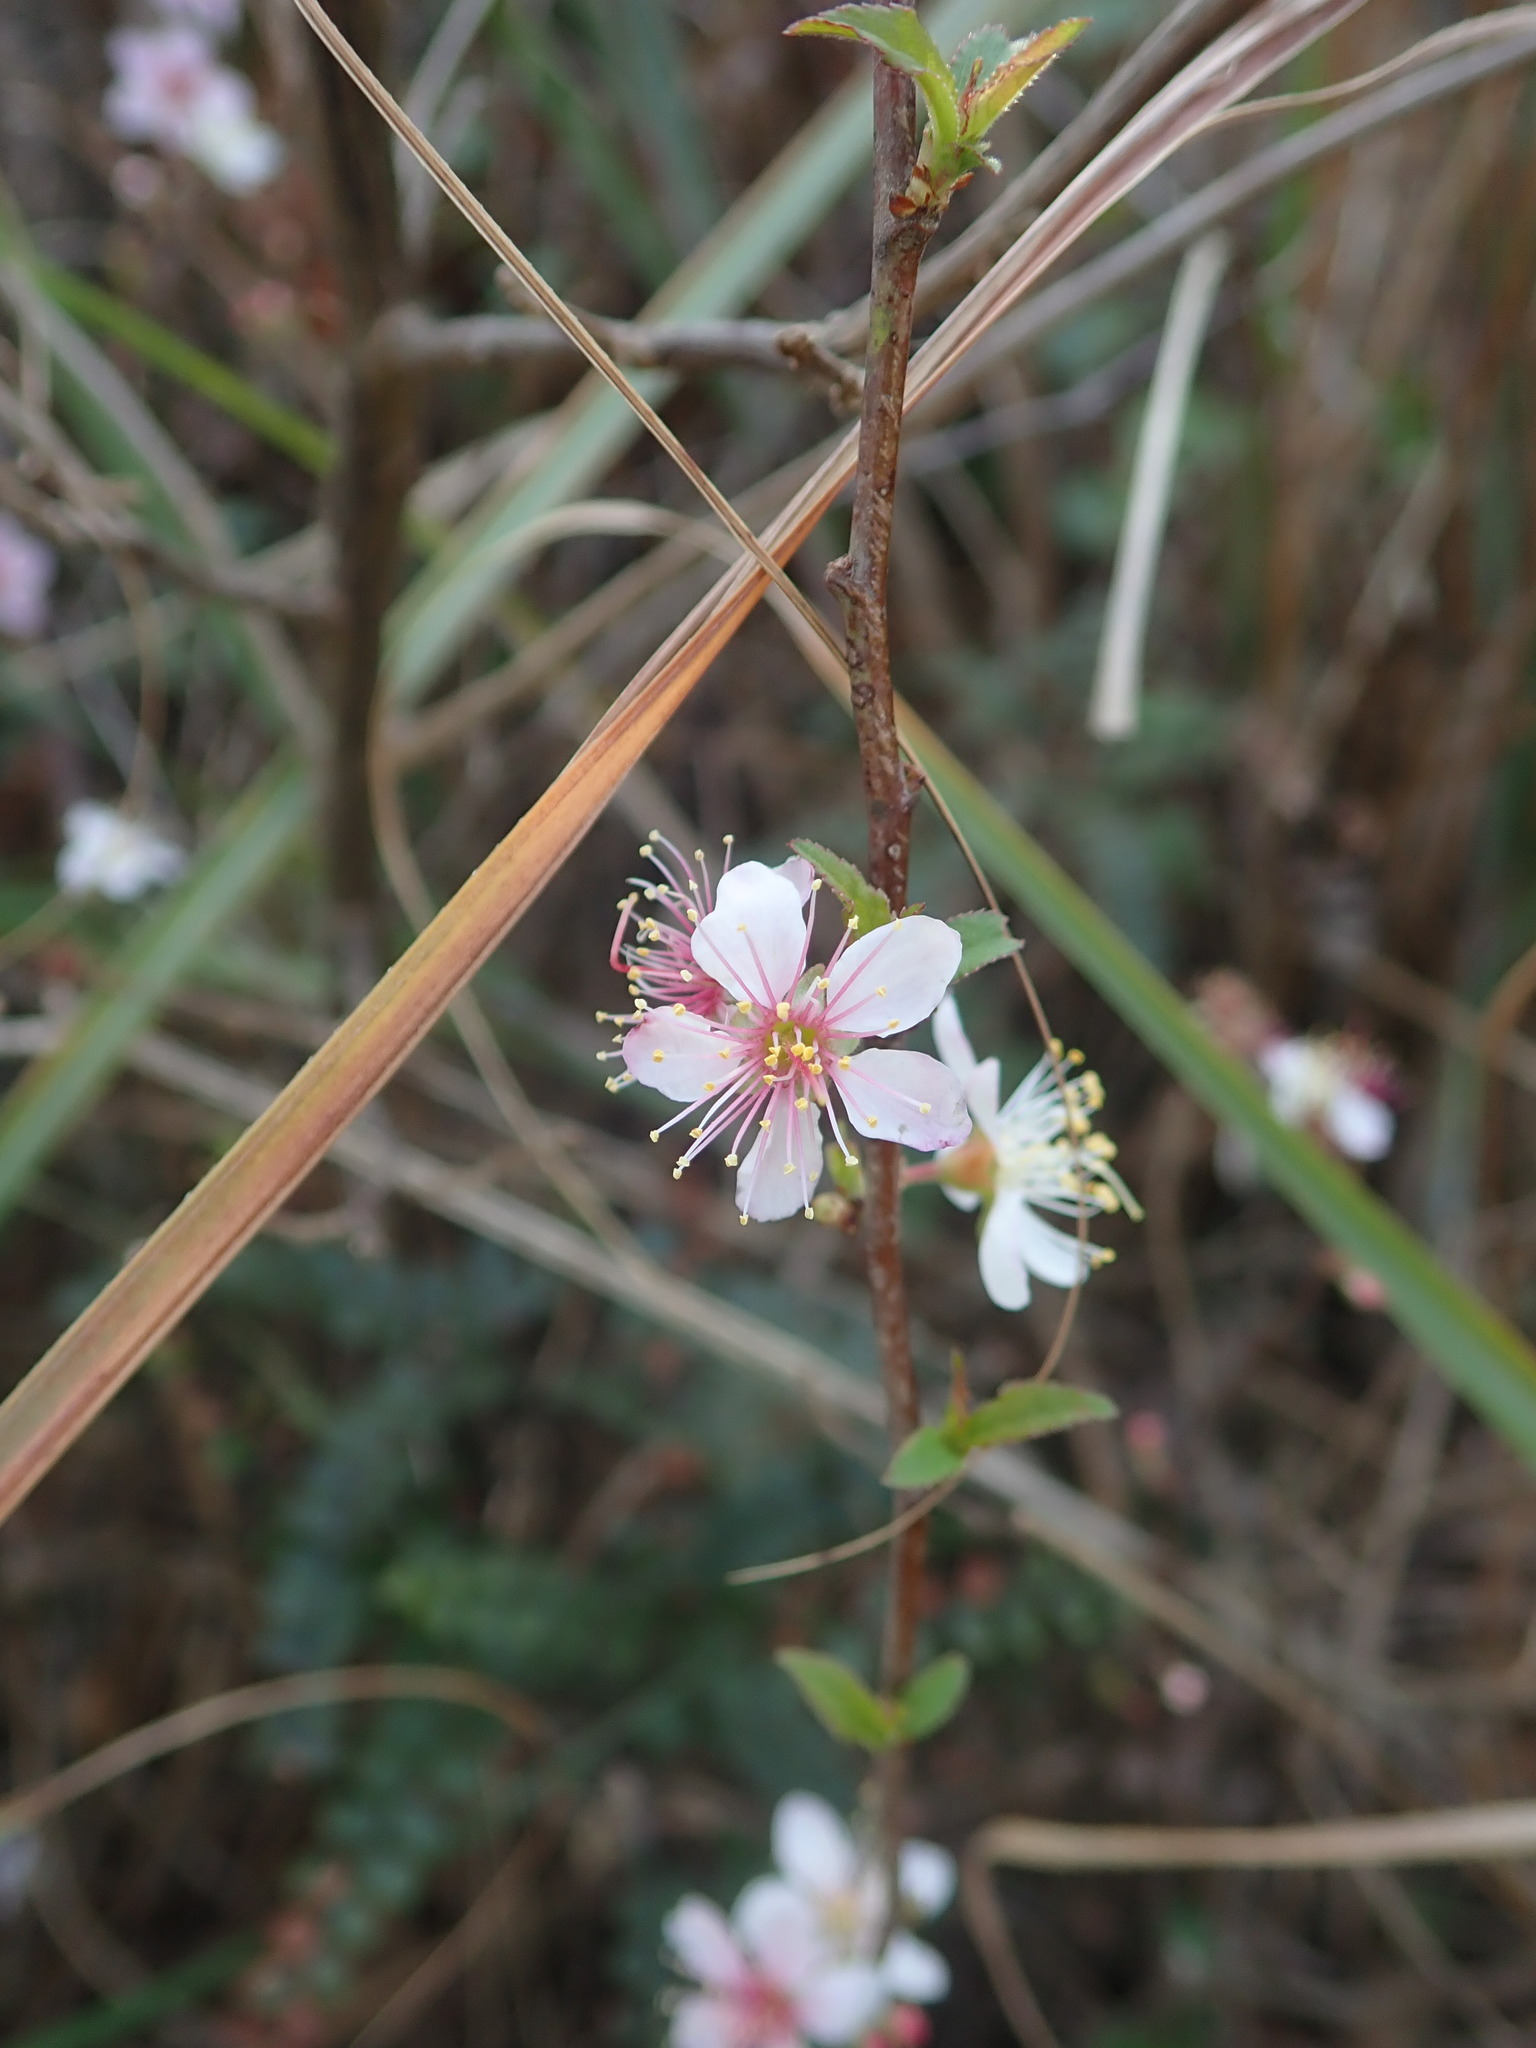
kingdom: Plantae
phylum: Tracheophyta
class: Magnoliopsida
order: Rosales
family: Rosaceae
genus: Prunus
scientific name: Prunus pogonostyla
